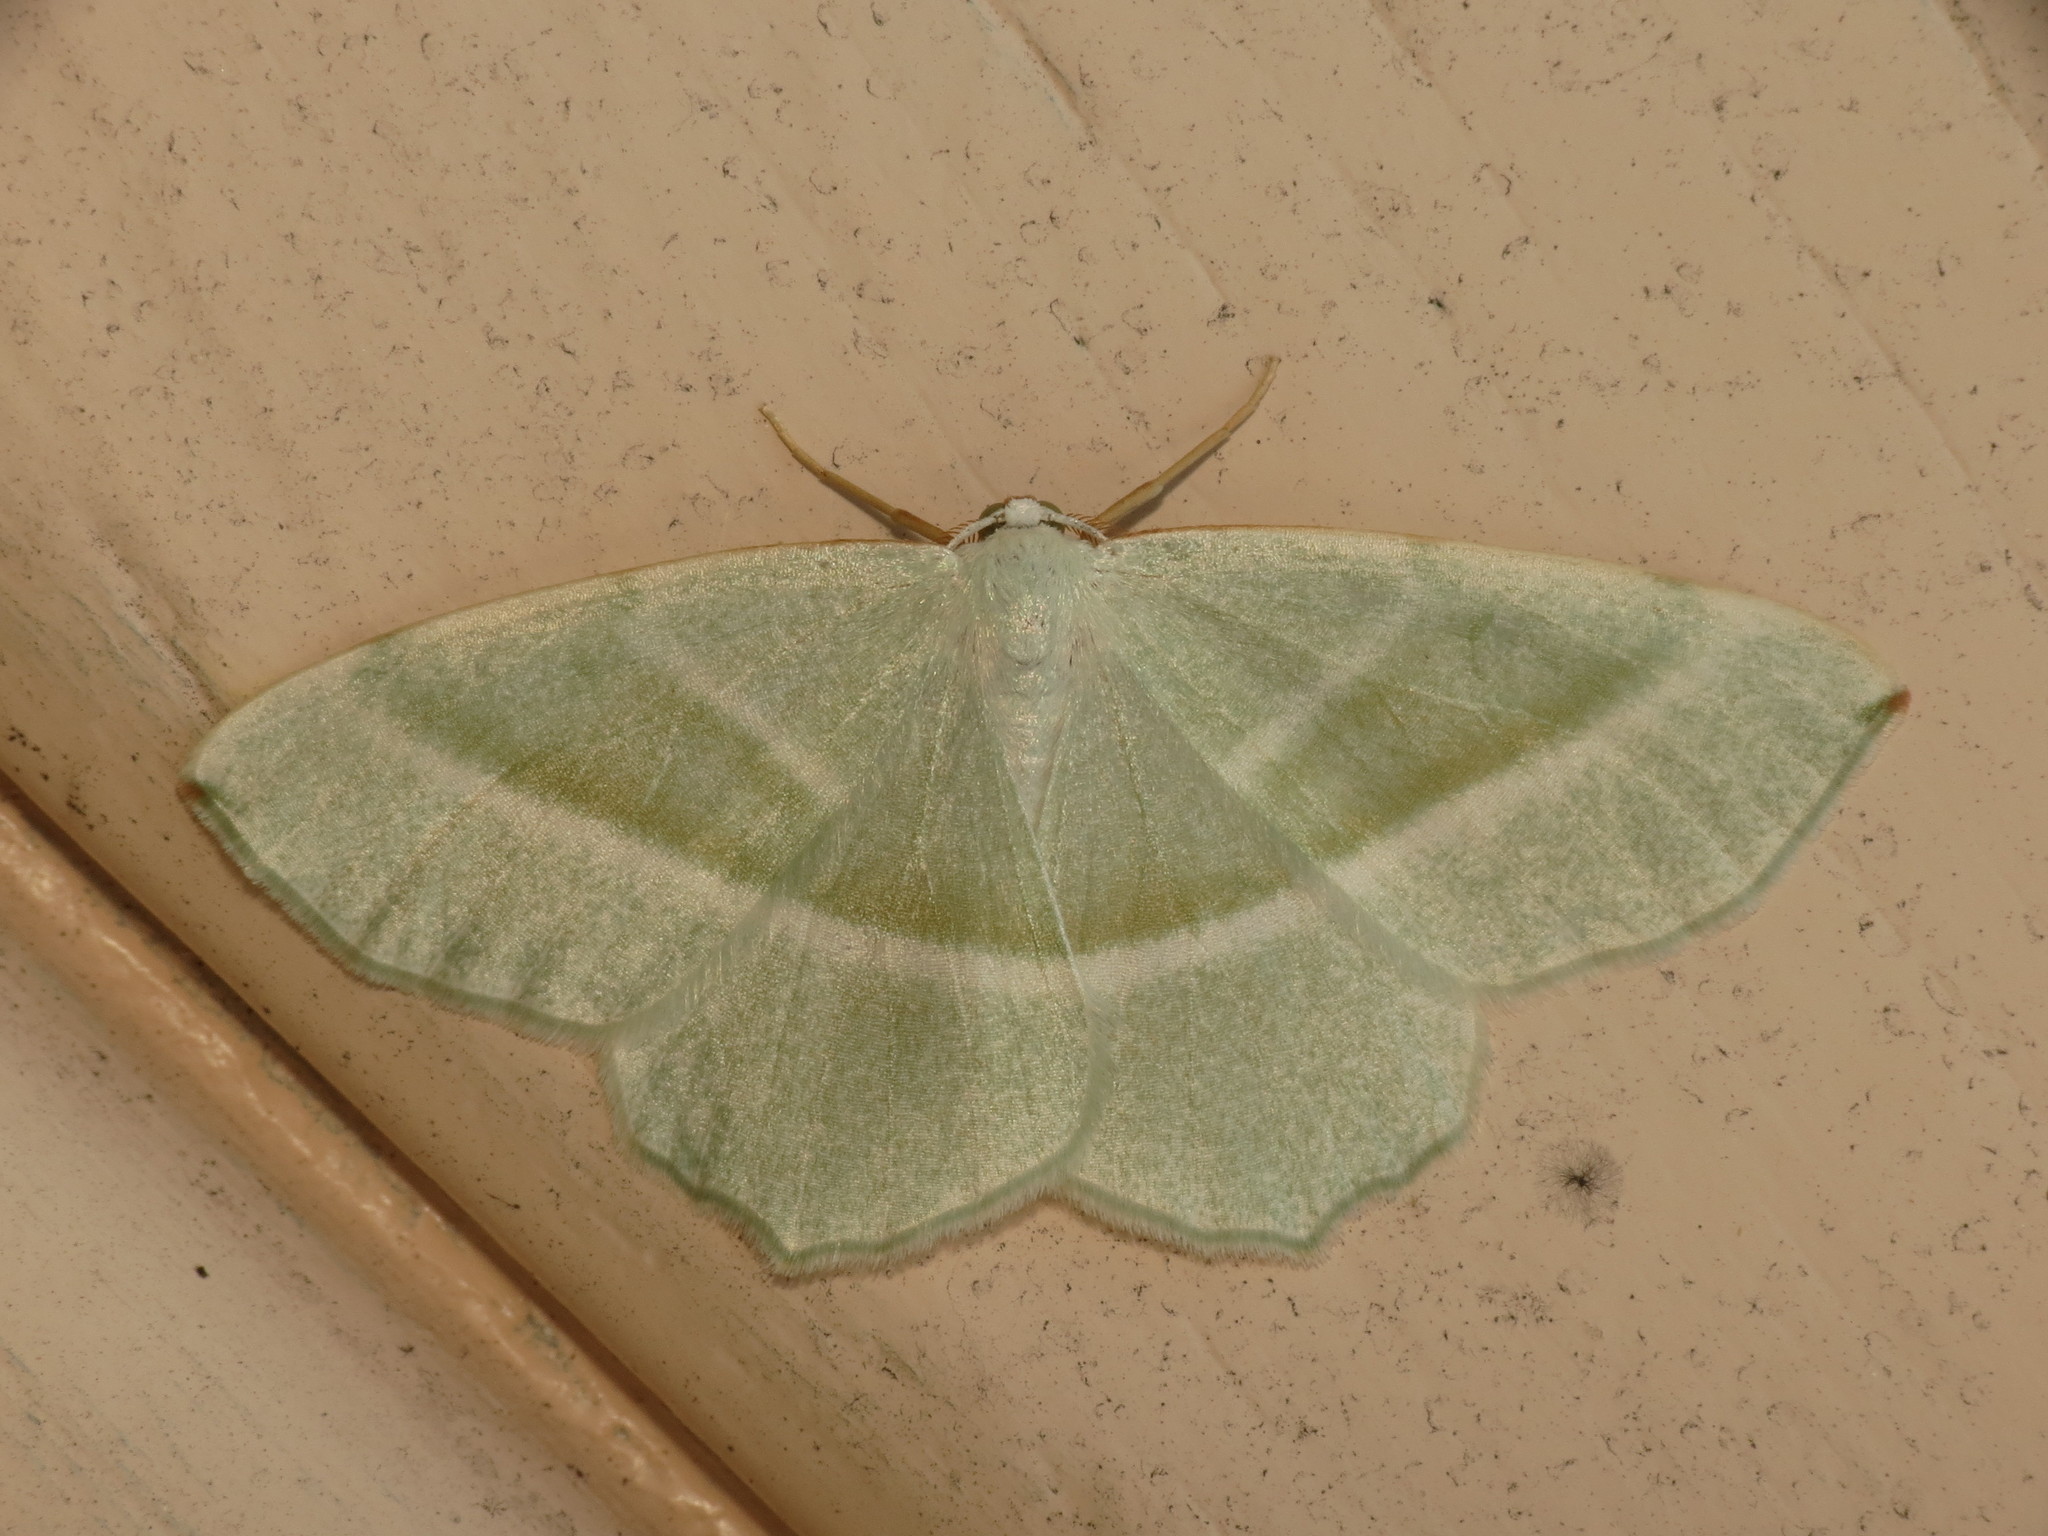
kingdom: Animalia
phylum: Arthropoda
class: Insecta
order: Lepidoptera
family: Geometridae
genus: Campaea
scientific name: Campaea margaritaria
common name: Light emerald
